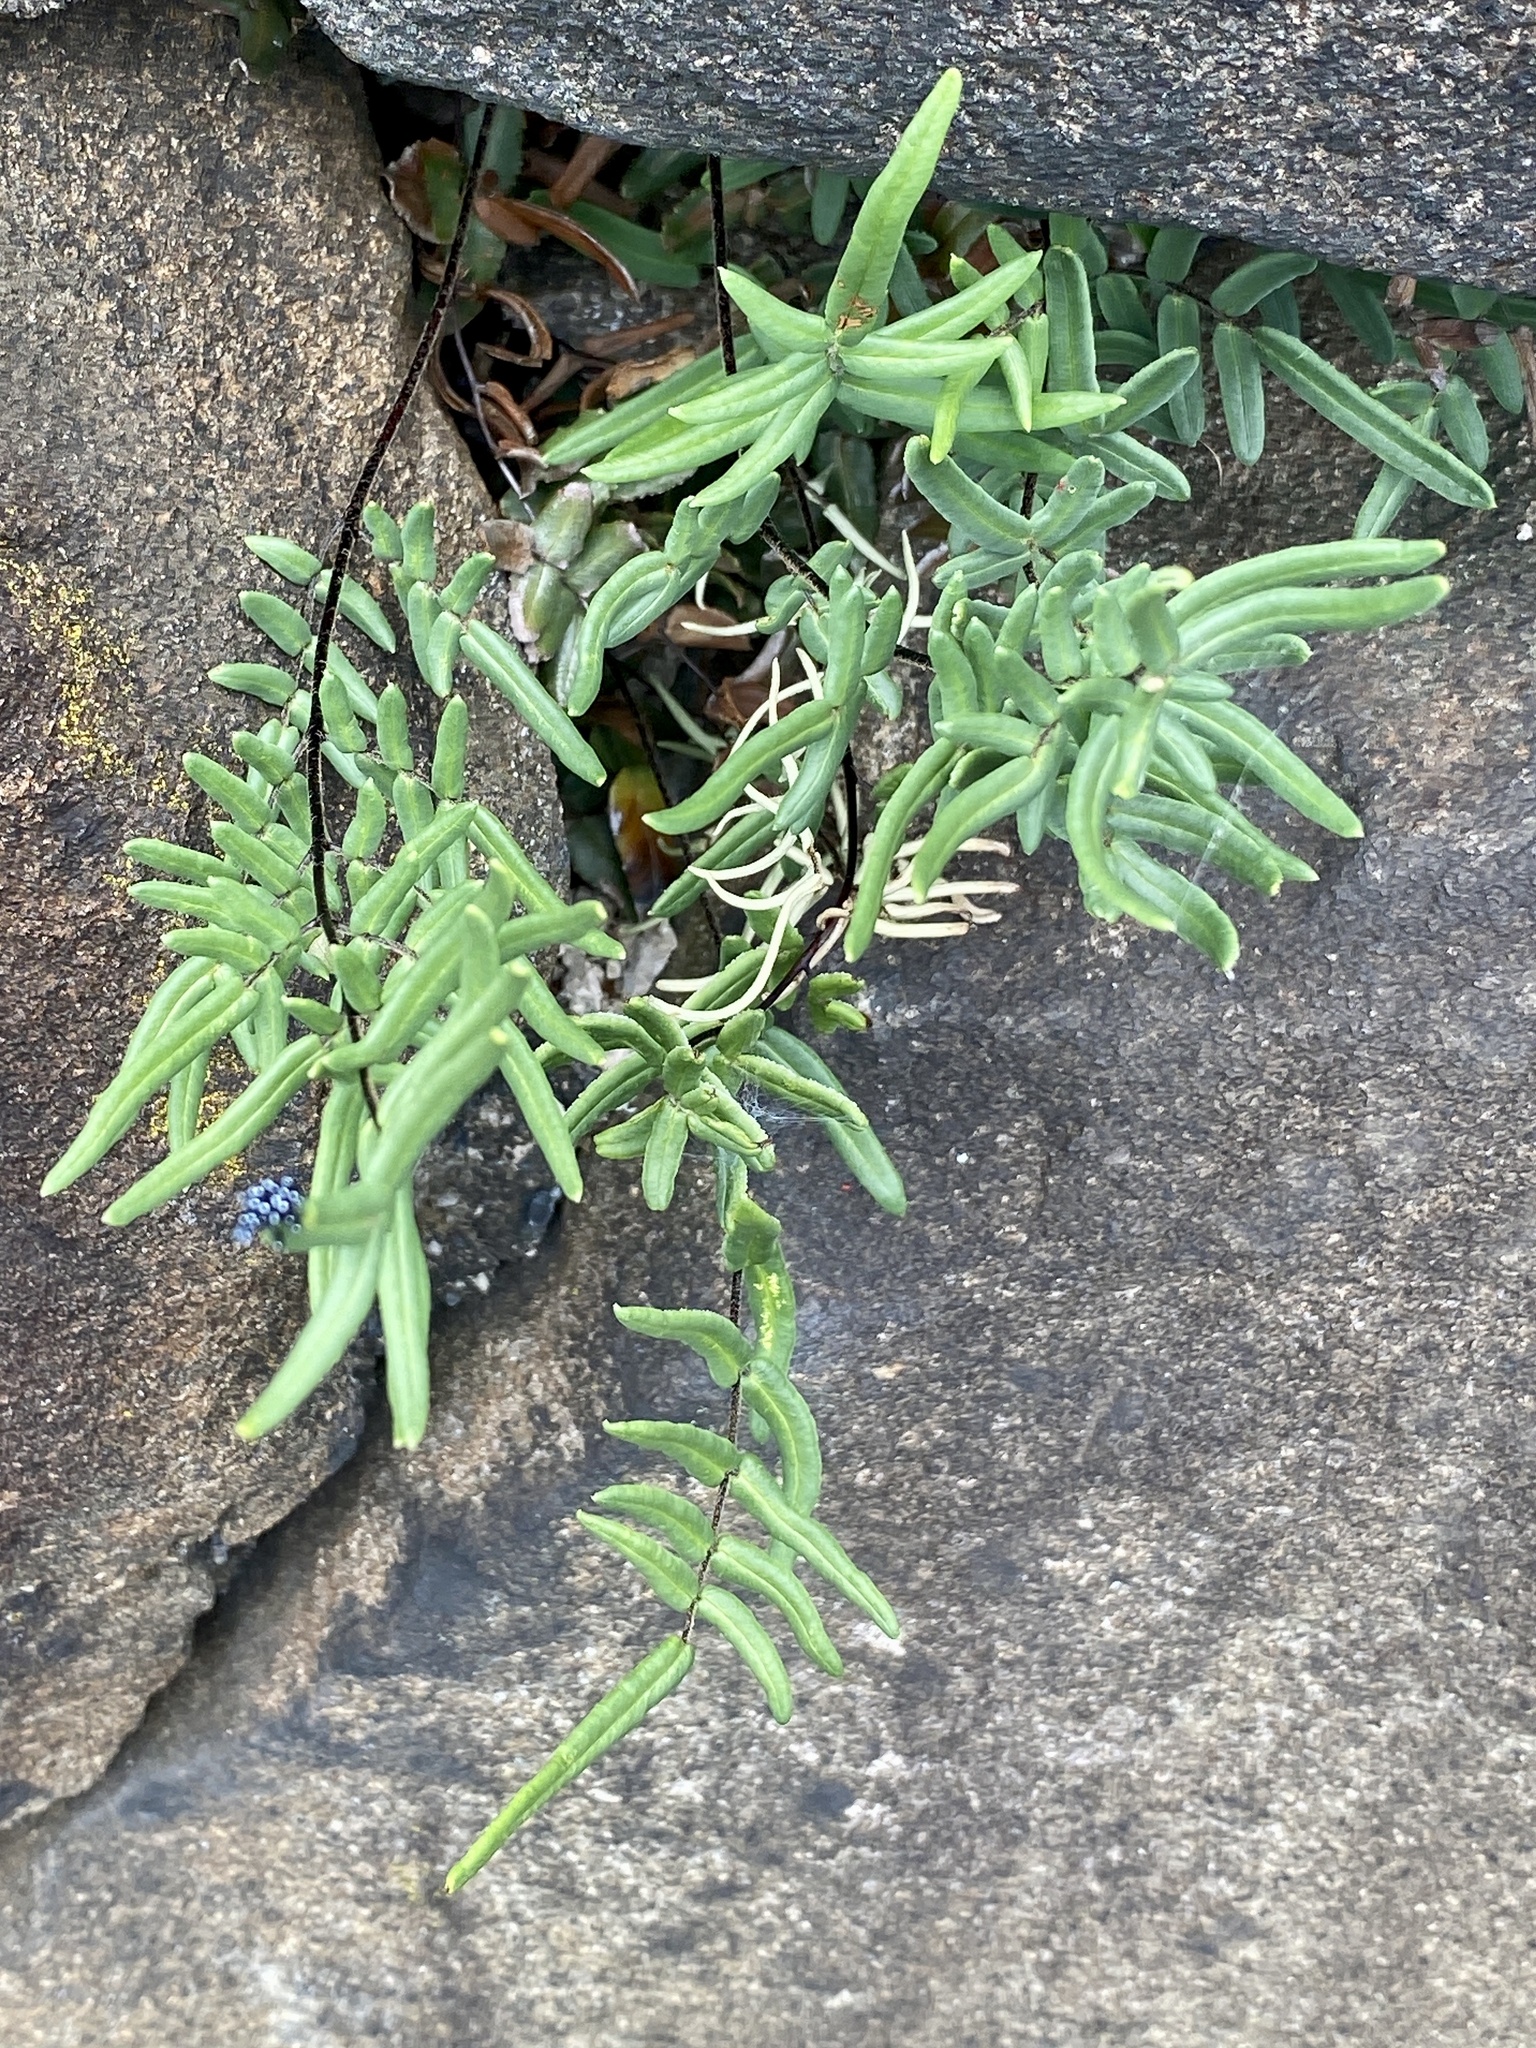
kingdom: Plantae
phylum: Tracheophyta
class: Polypodiopsida
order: Polypodiales
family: Pteridaceae
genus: Pellaea
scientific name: Pellaea atropurpurea
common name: Hairy cliffbrake
